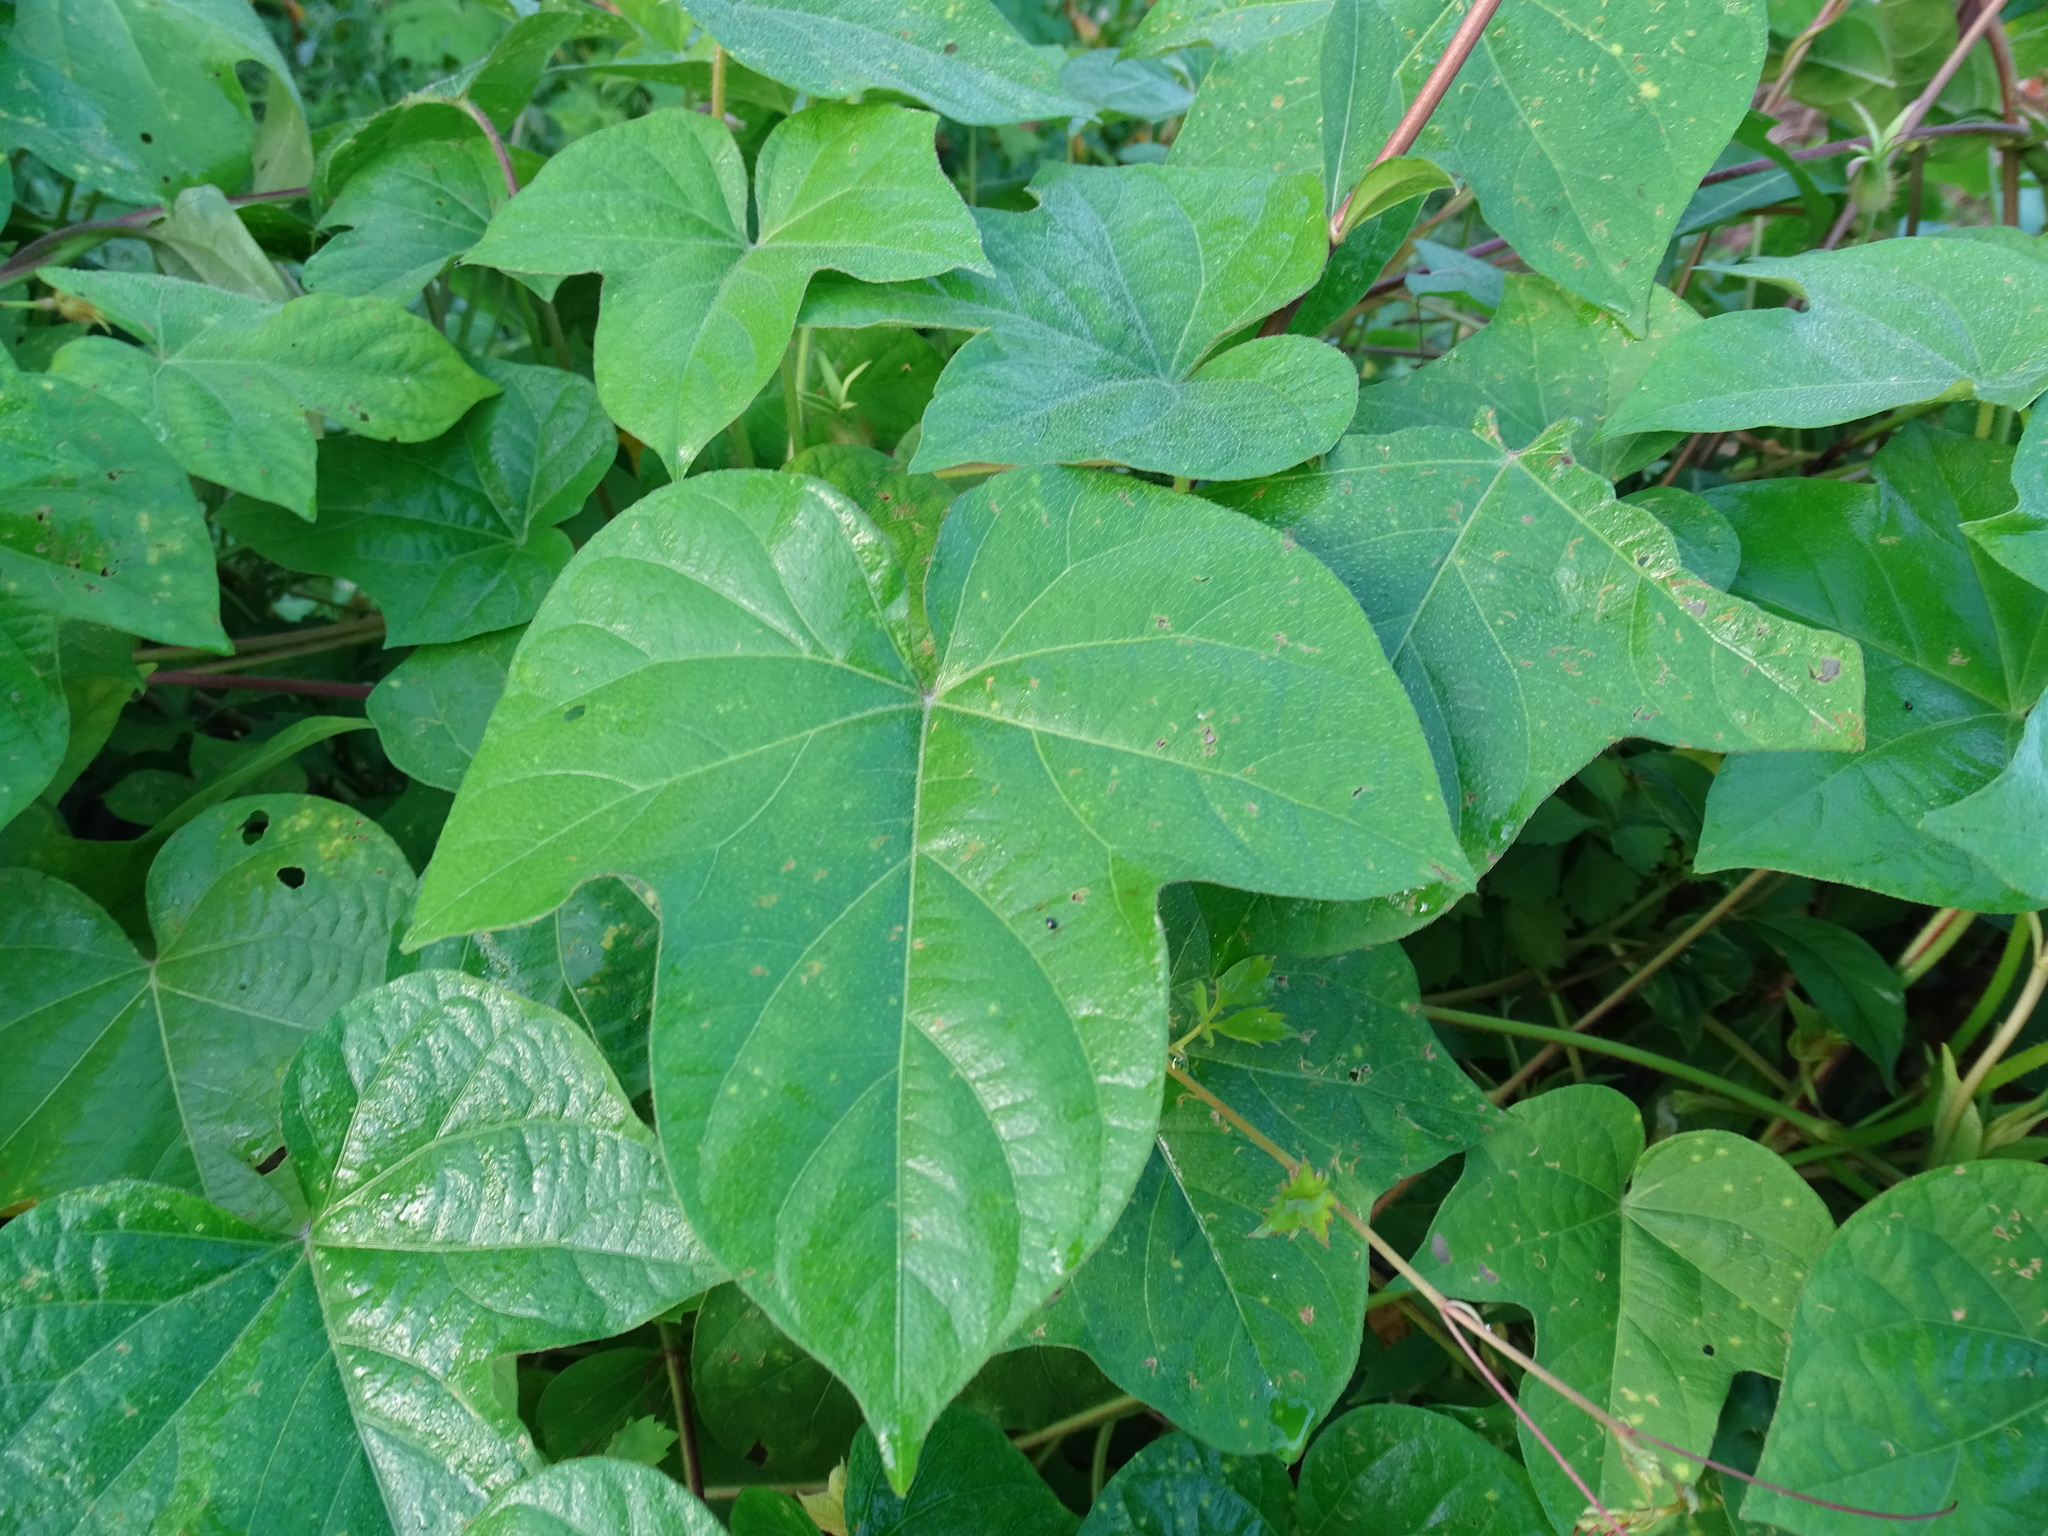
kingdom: Plantae
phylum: Tracheophyta
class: Magnoliopsida
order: Solanales
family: Convolvulaceae
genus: Ipomoea
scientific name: Ipomoea nil
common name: Japanese morning-glory
